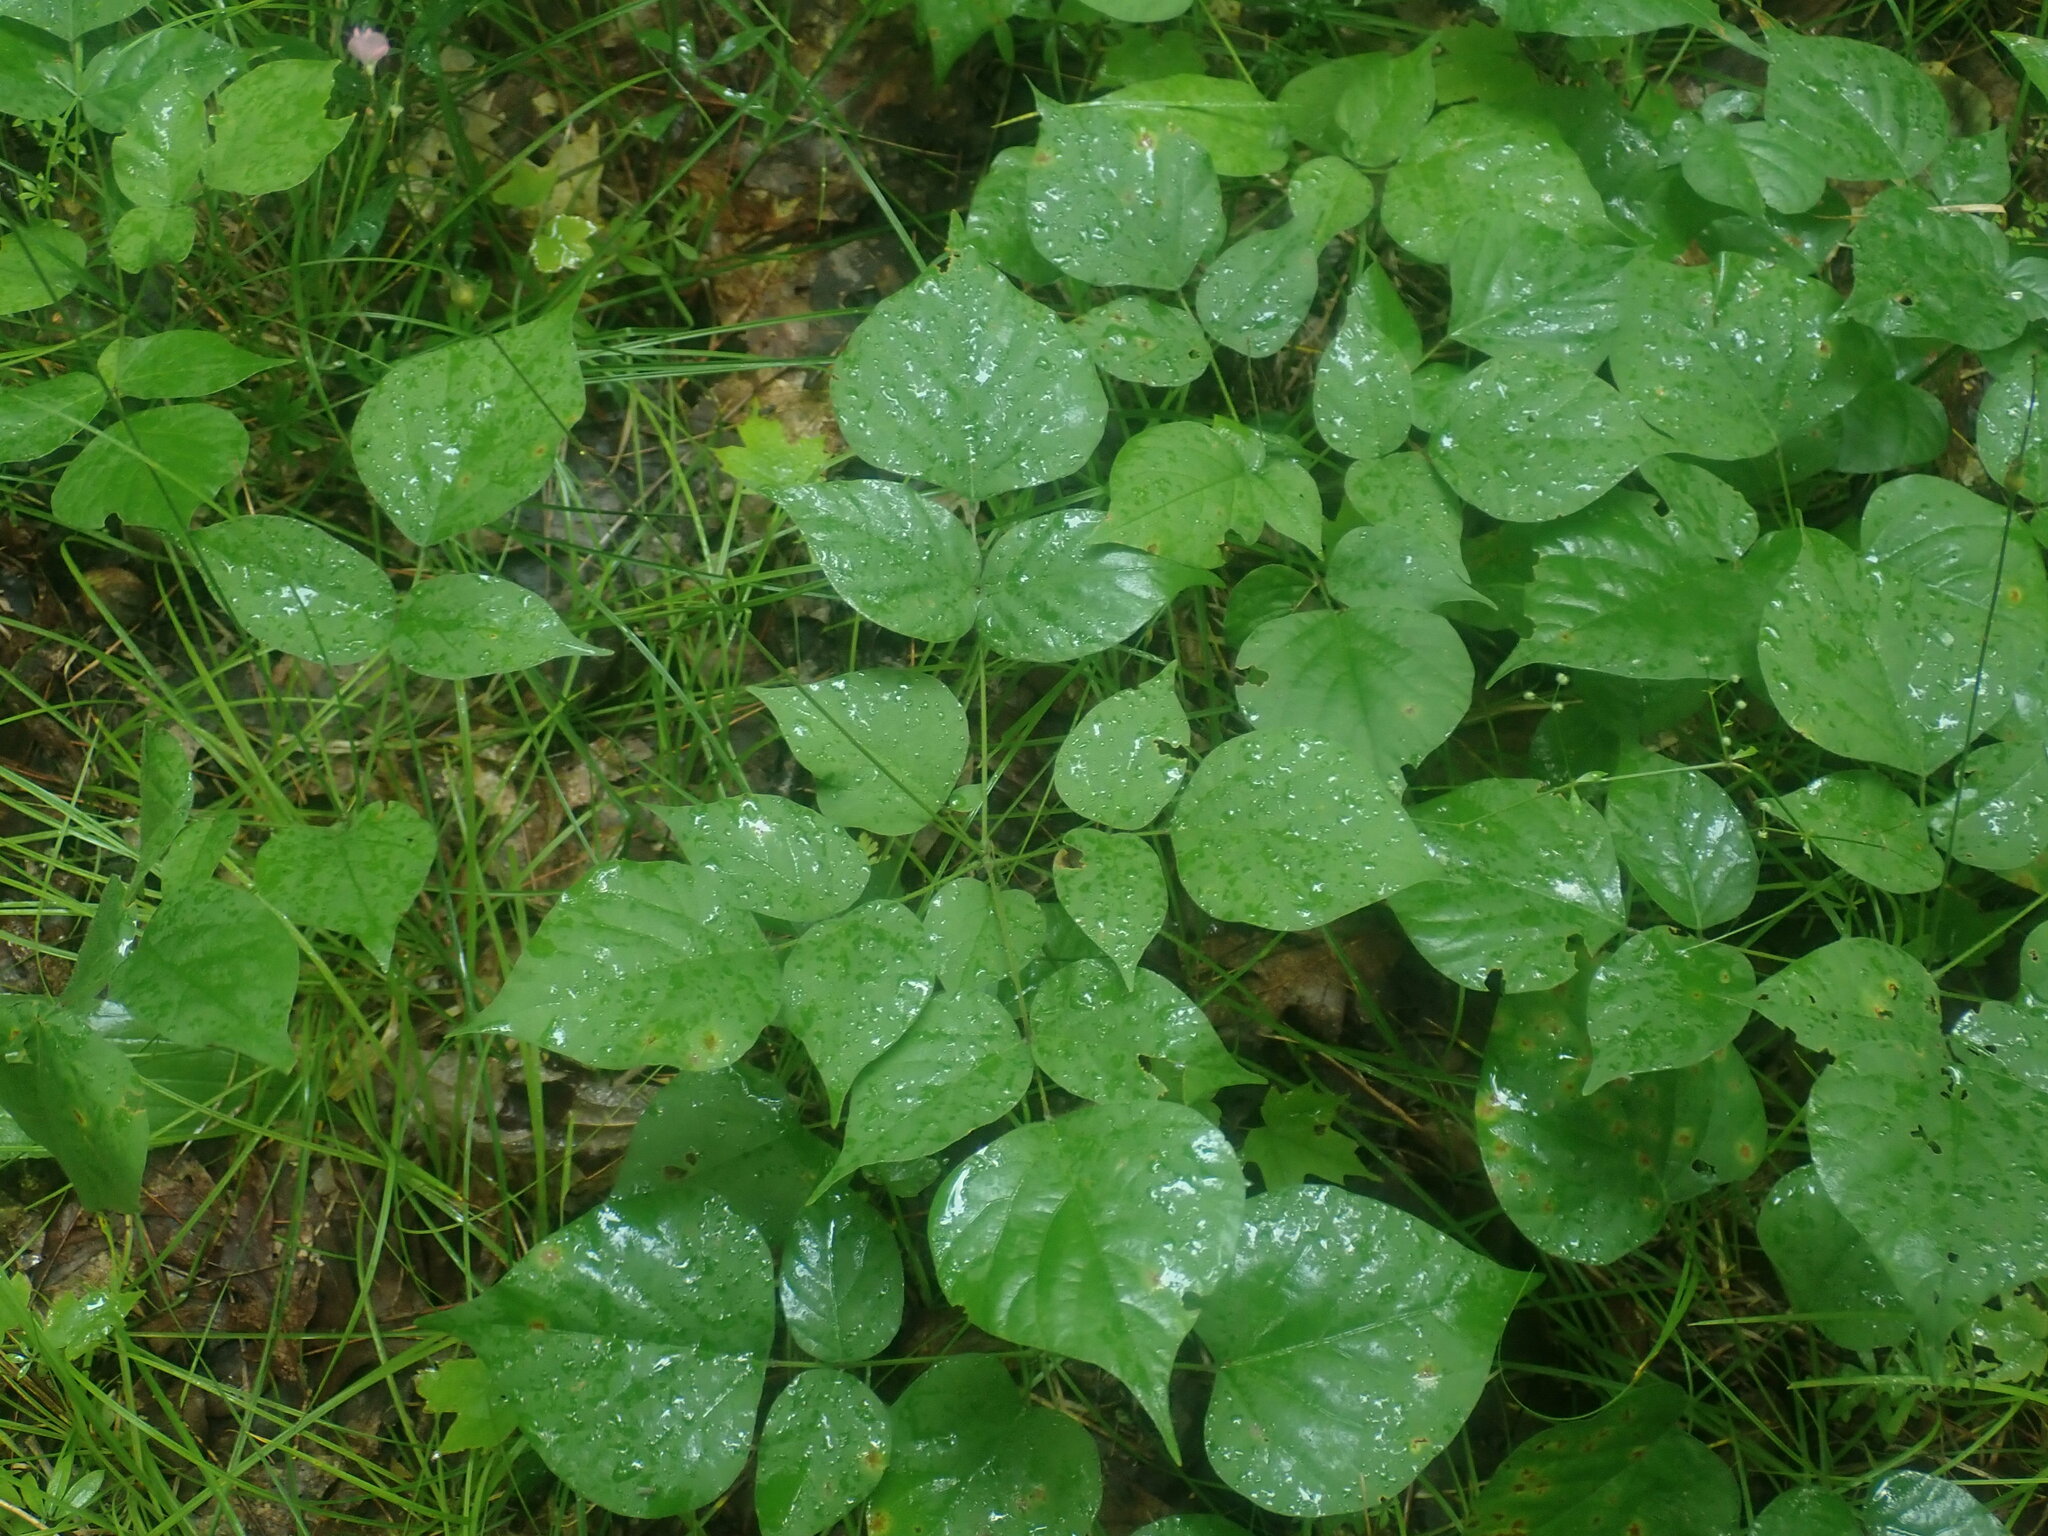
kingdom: Plantae
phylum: Tracheophyta
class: Magnoliopsida
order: Fabales
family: Fabaceae
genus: Hylodesmum
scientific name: Hylodesmum glutinosum
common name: Clustered-leaved tick-trefoil
